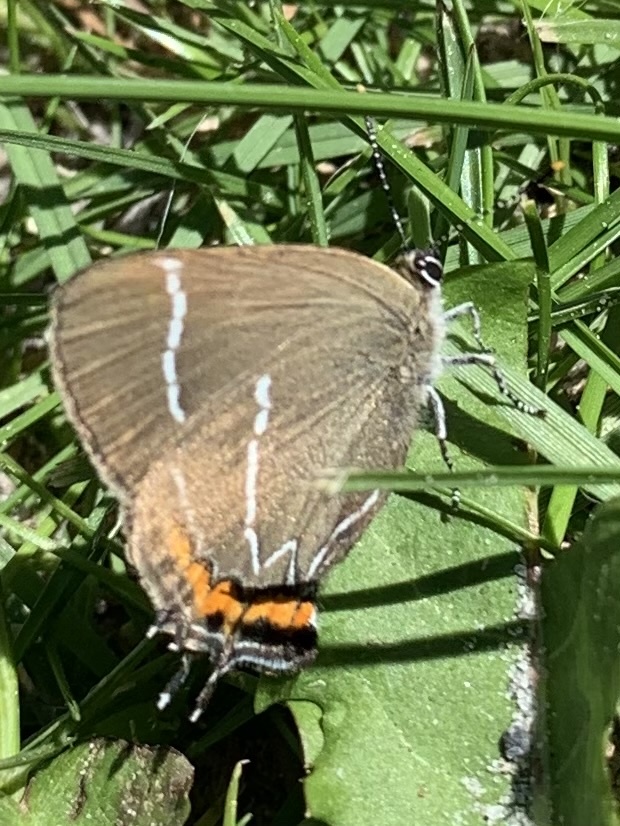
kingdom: Animalia
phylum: Arthropoda
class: Insecta
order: Lepidoptera
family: Lycaenidae
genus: Satyrium
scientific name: Satyrium w-album
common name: White-letter hairstreak
